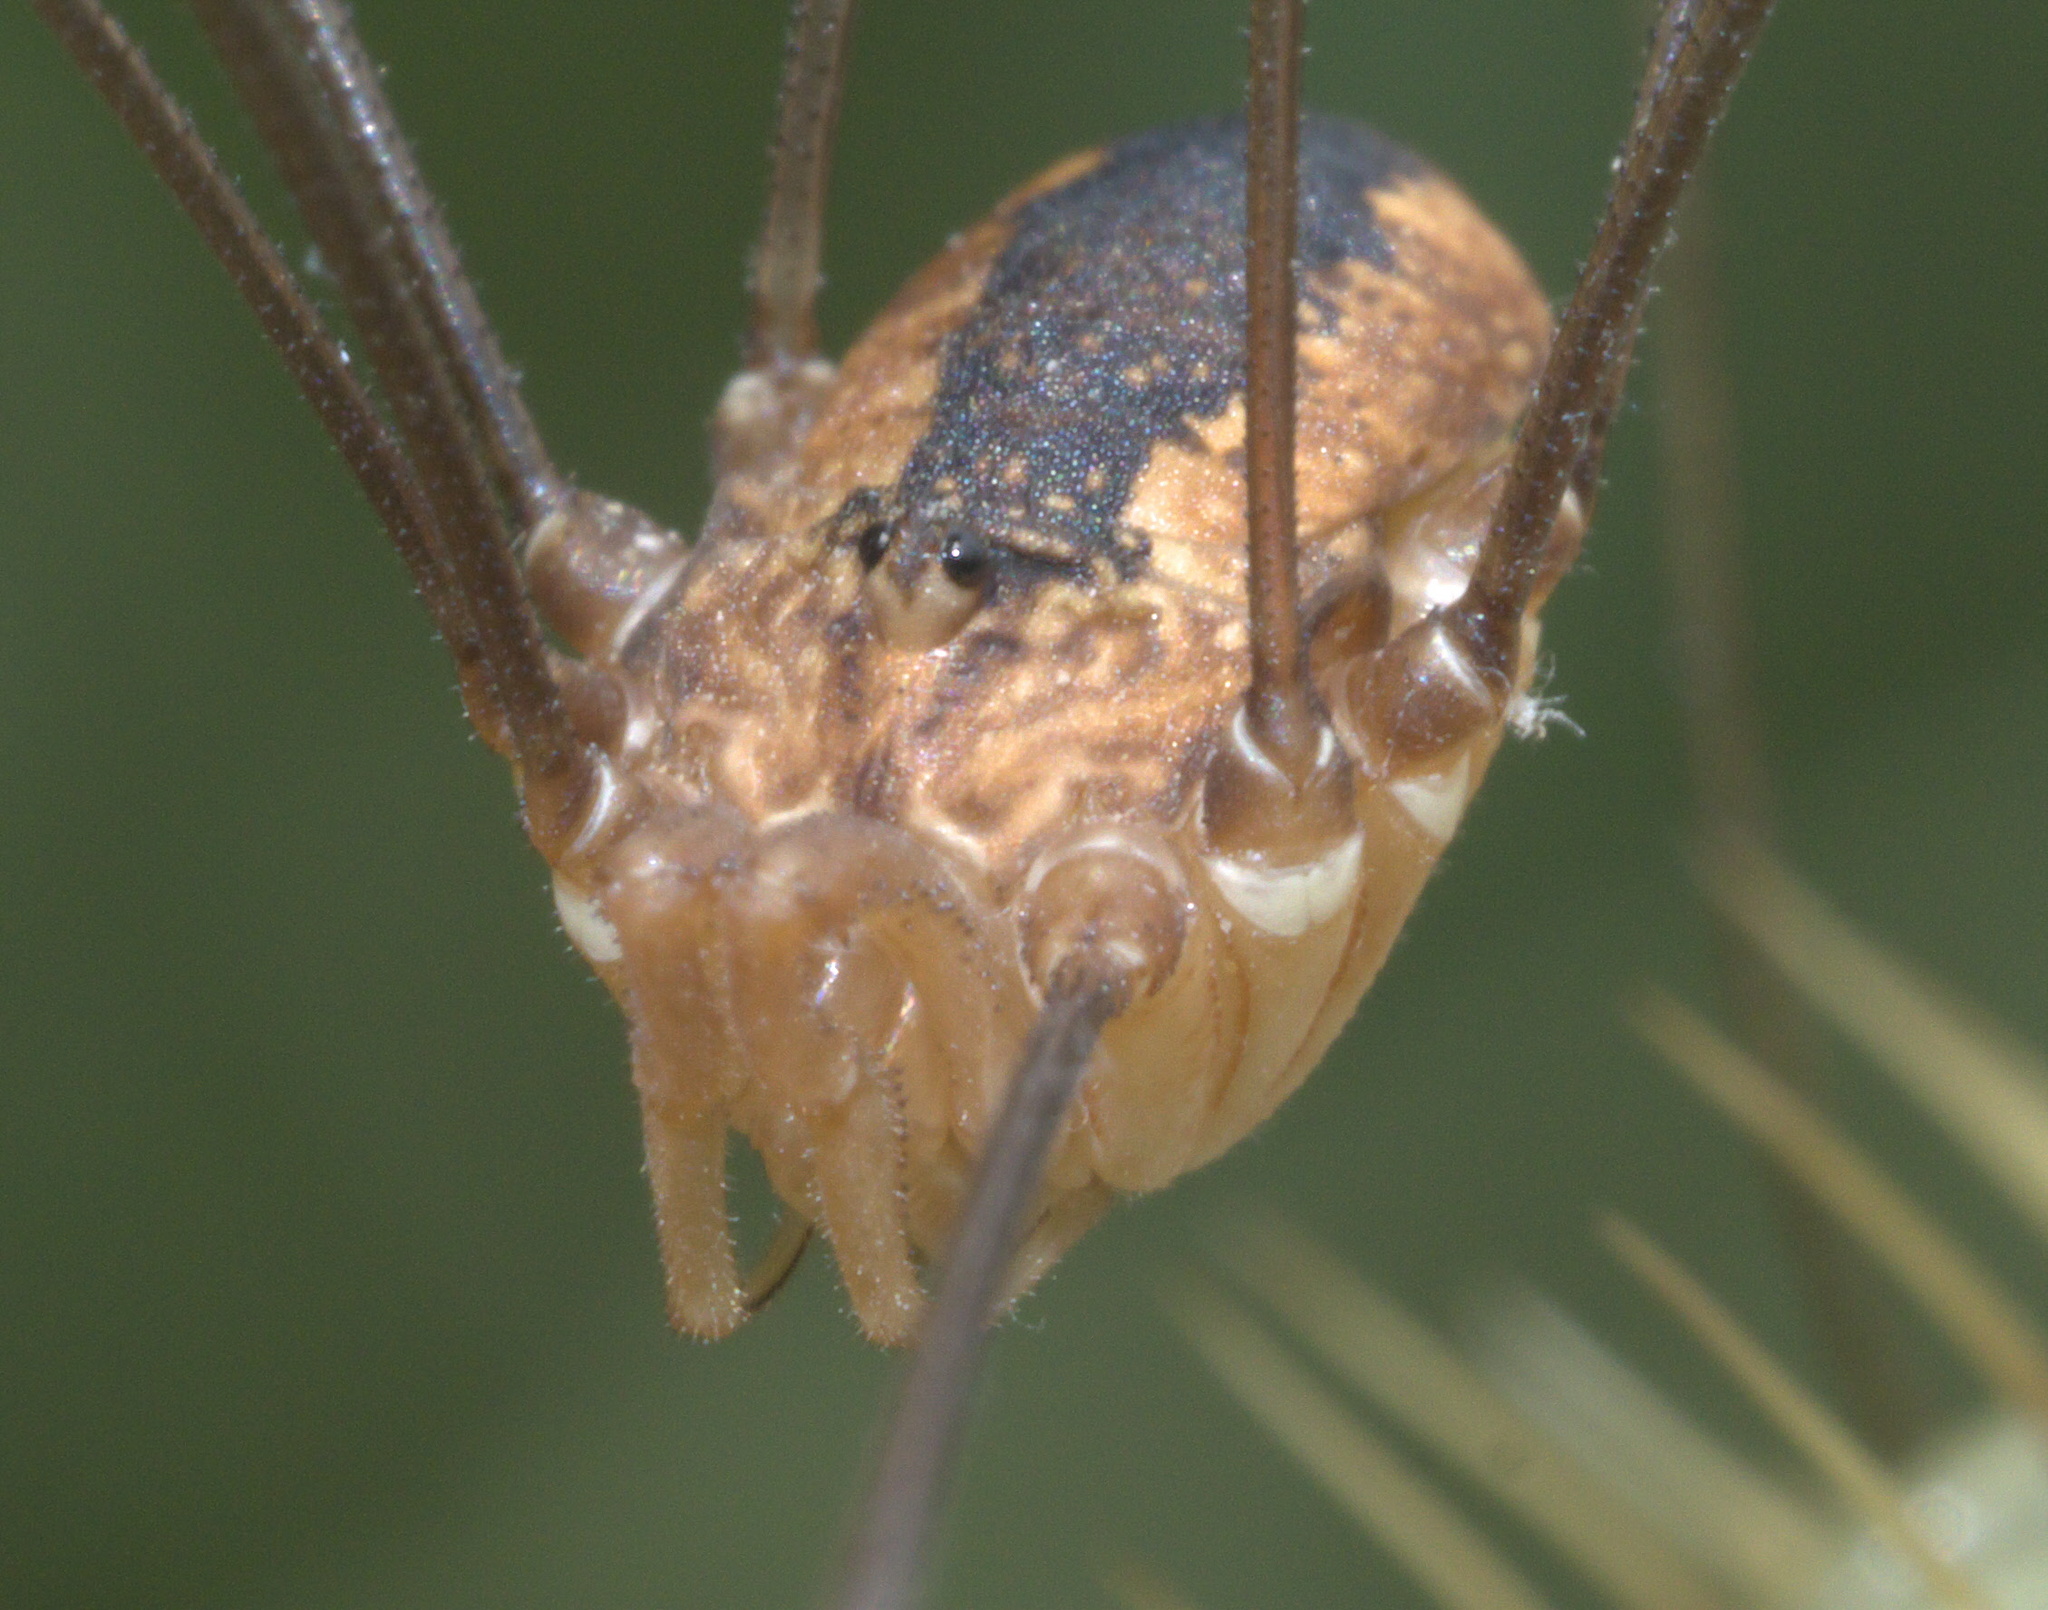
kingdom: Animalia
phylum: Arthropoda
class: Arachnida
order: Opiliones
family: Sclerosomatidae
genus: Leiobunum
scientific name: Leiobunum vittatum
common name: Eastern harvestman
